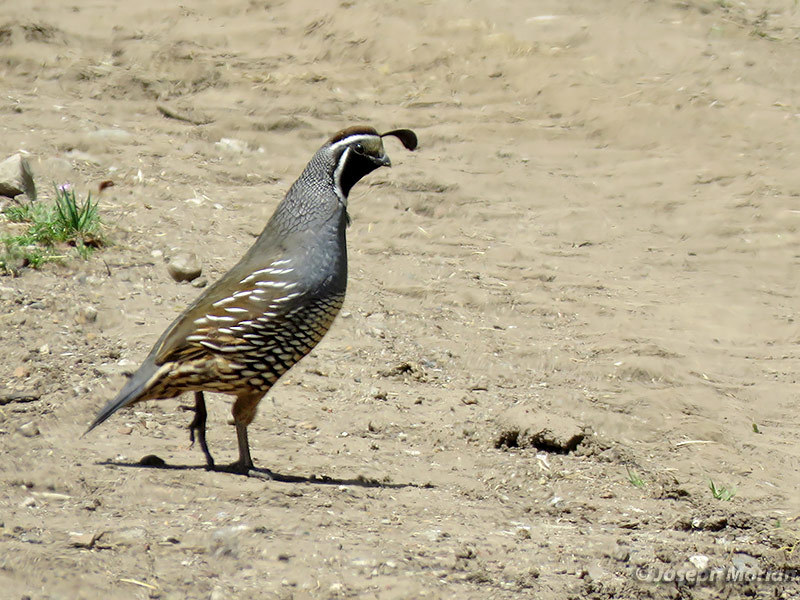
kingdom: Animalia
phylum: Chordata
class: Aves
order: Galliformes
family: Odontophoridae
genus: Callipepla
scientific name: Callipepla californica
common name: California quail
